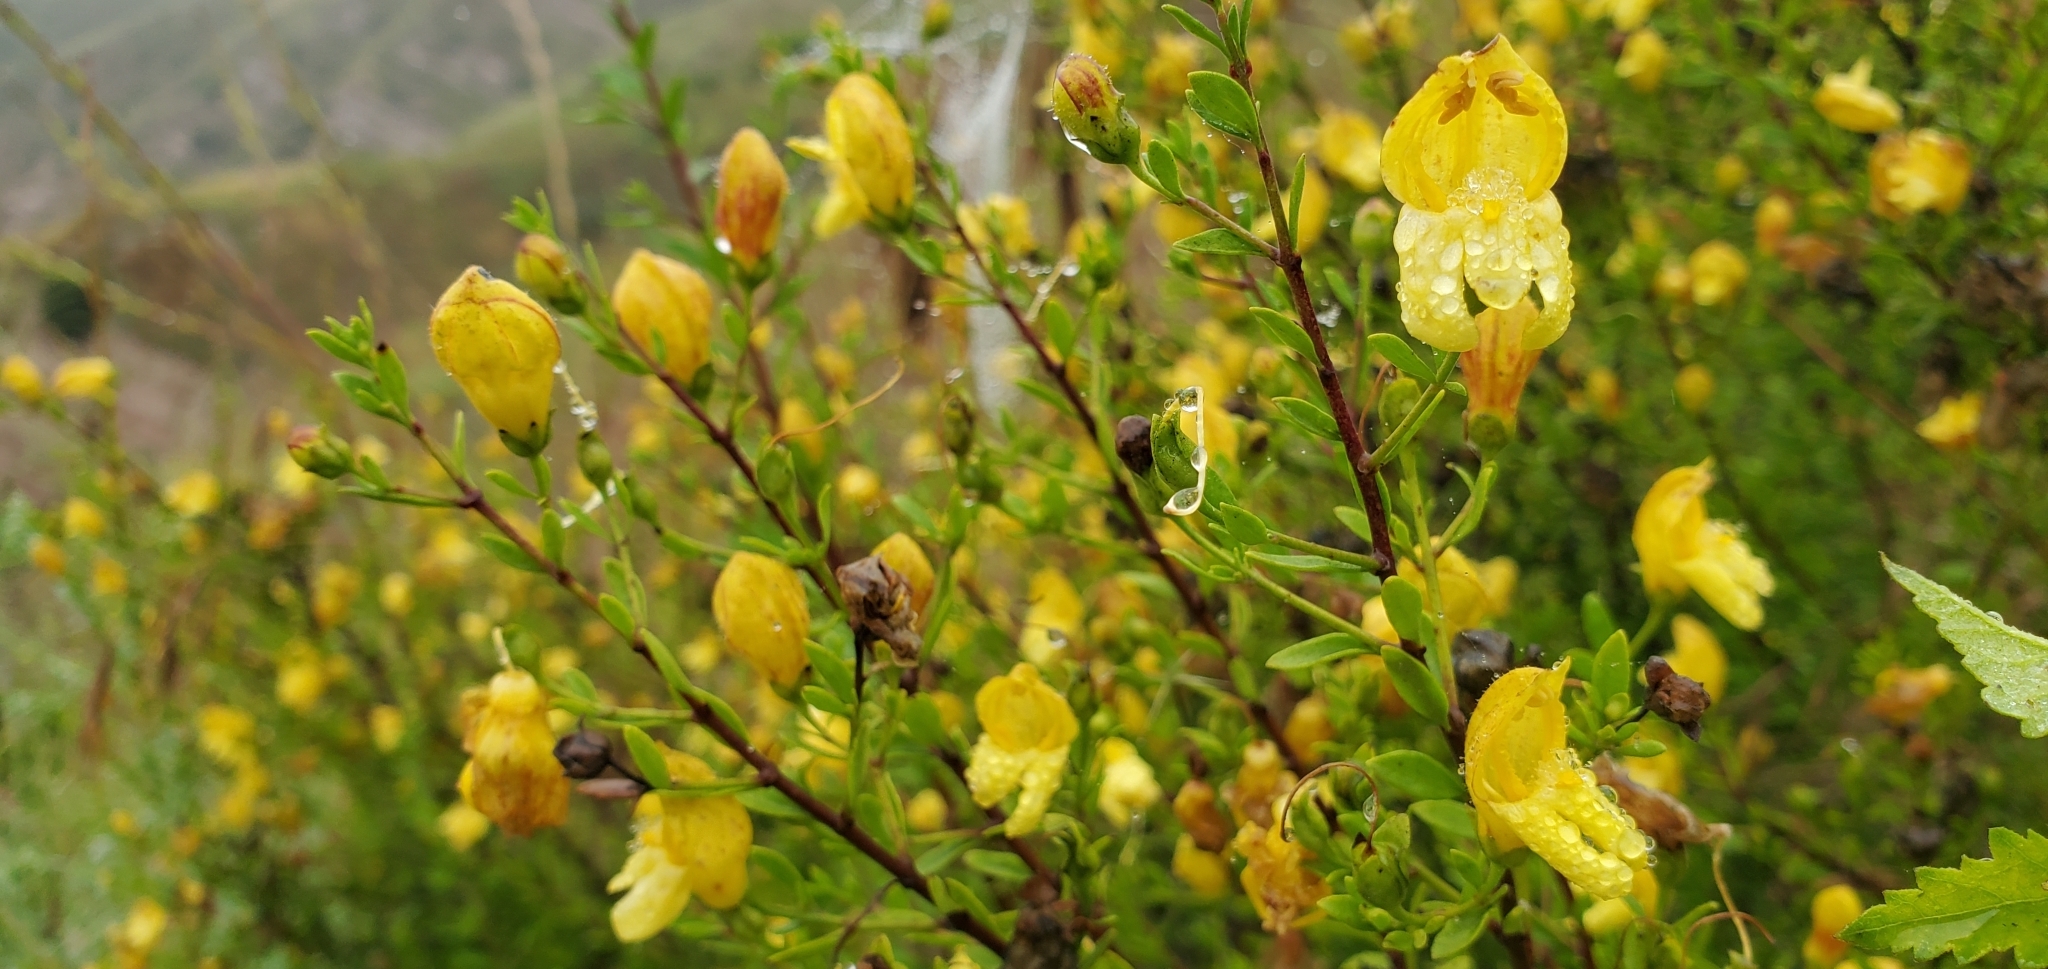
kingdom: Plantae
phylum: Tracheophyta
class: Magnoliopsida
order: Lamiales
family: Plantaginaceae
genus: Keckiella
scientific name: Keckiella antirrhinoides
